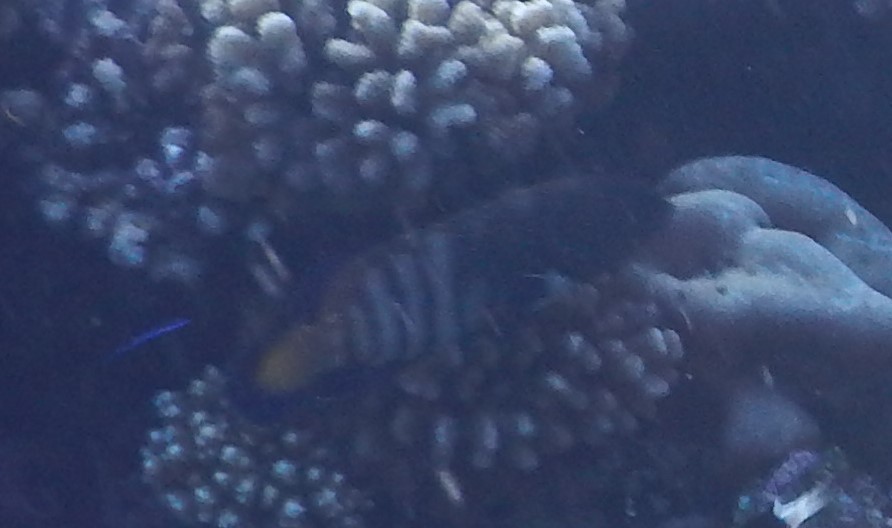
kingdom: Animalia
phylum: Chordata
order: Perciformes
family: Serranidae
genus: Cephalopholis
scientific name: Cephalopholis argus
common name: Peacock grouper
